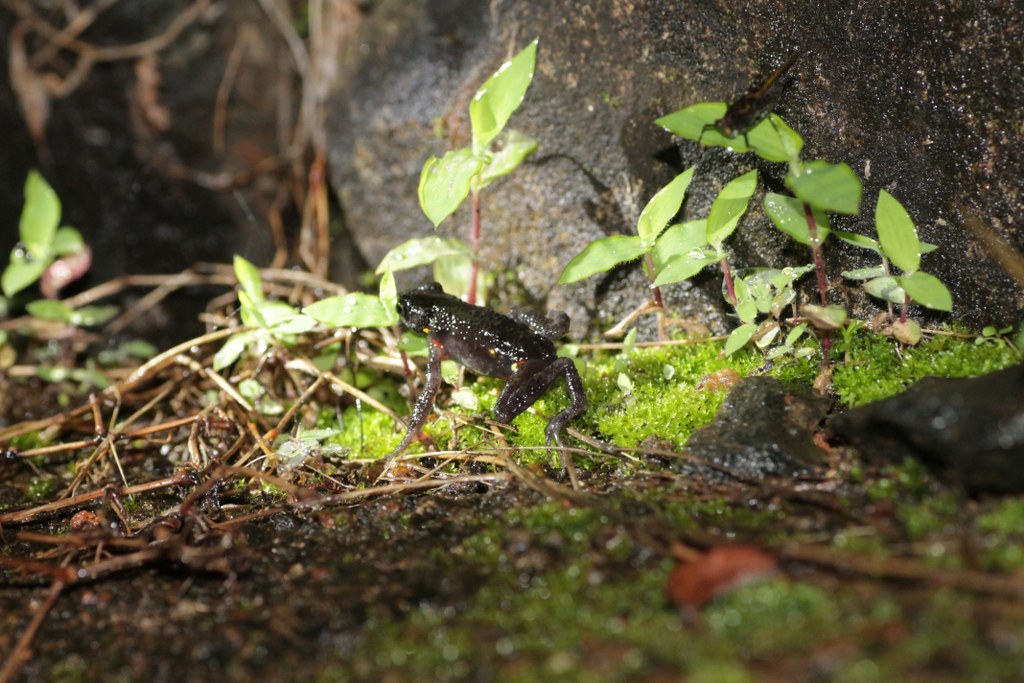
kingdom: Animalia
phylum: Chordata
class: Amphibia
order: Anura
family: Bufonidae
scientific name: Bufonidae
